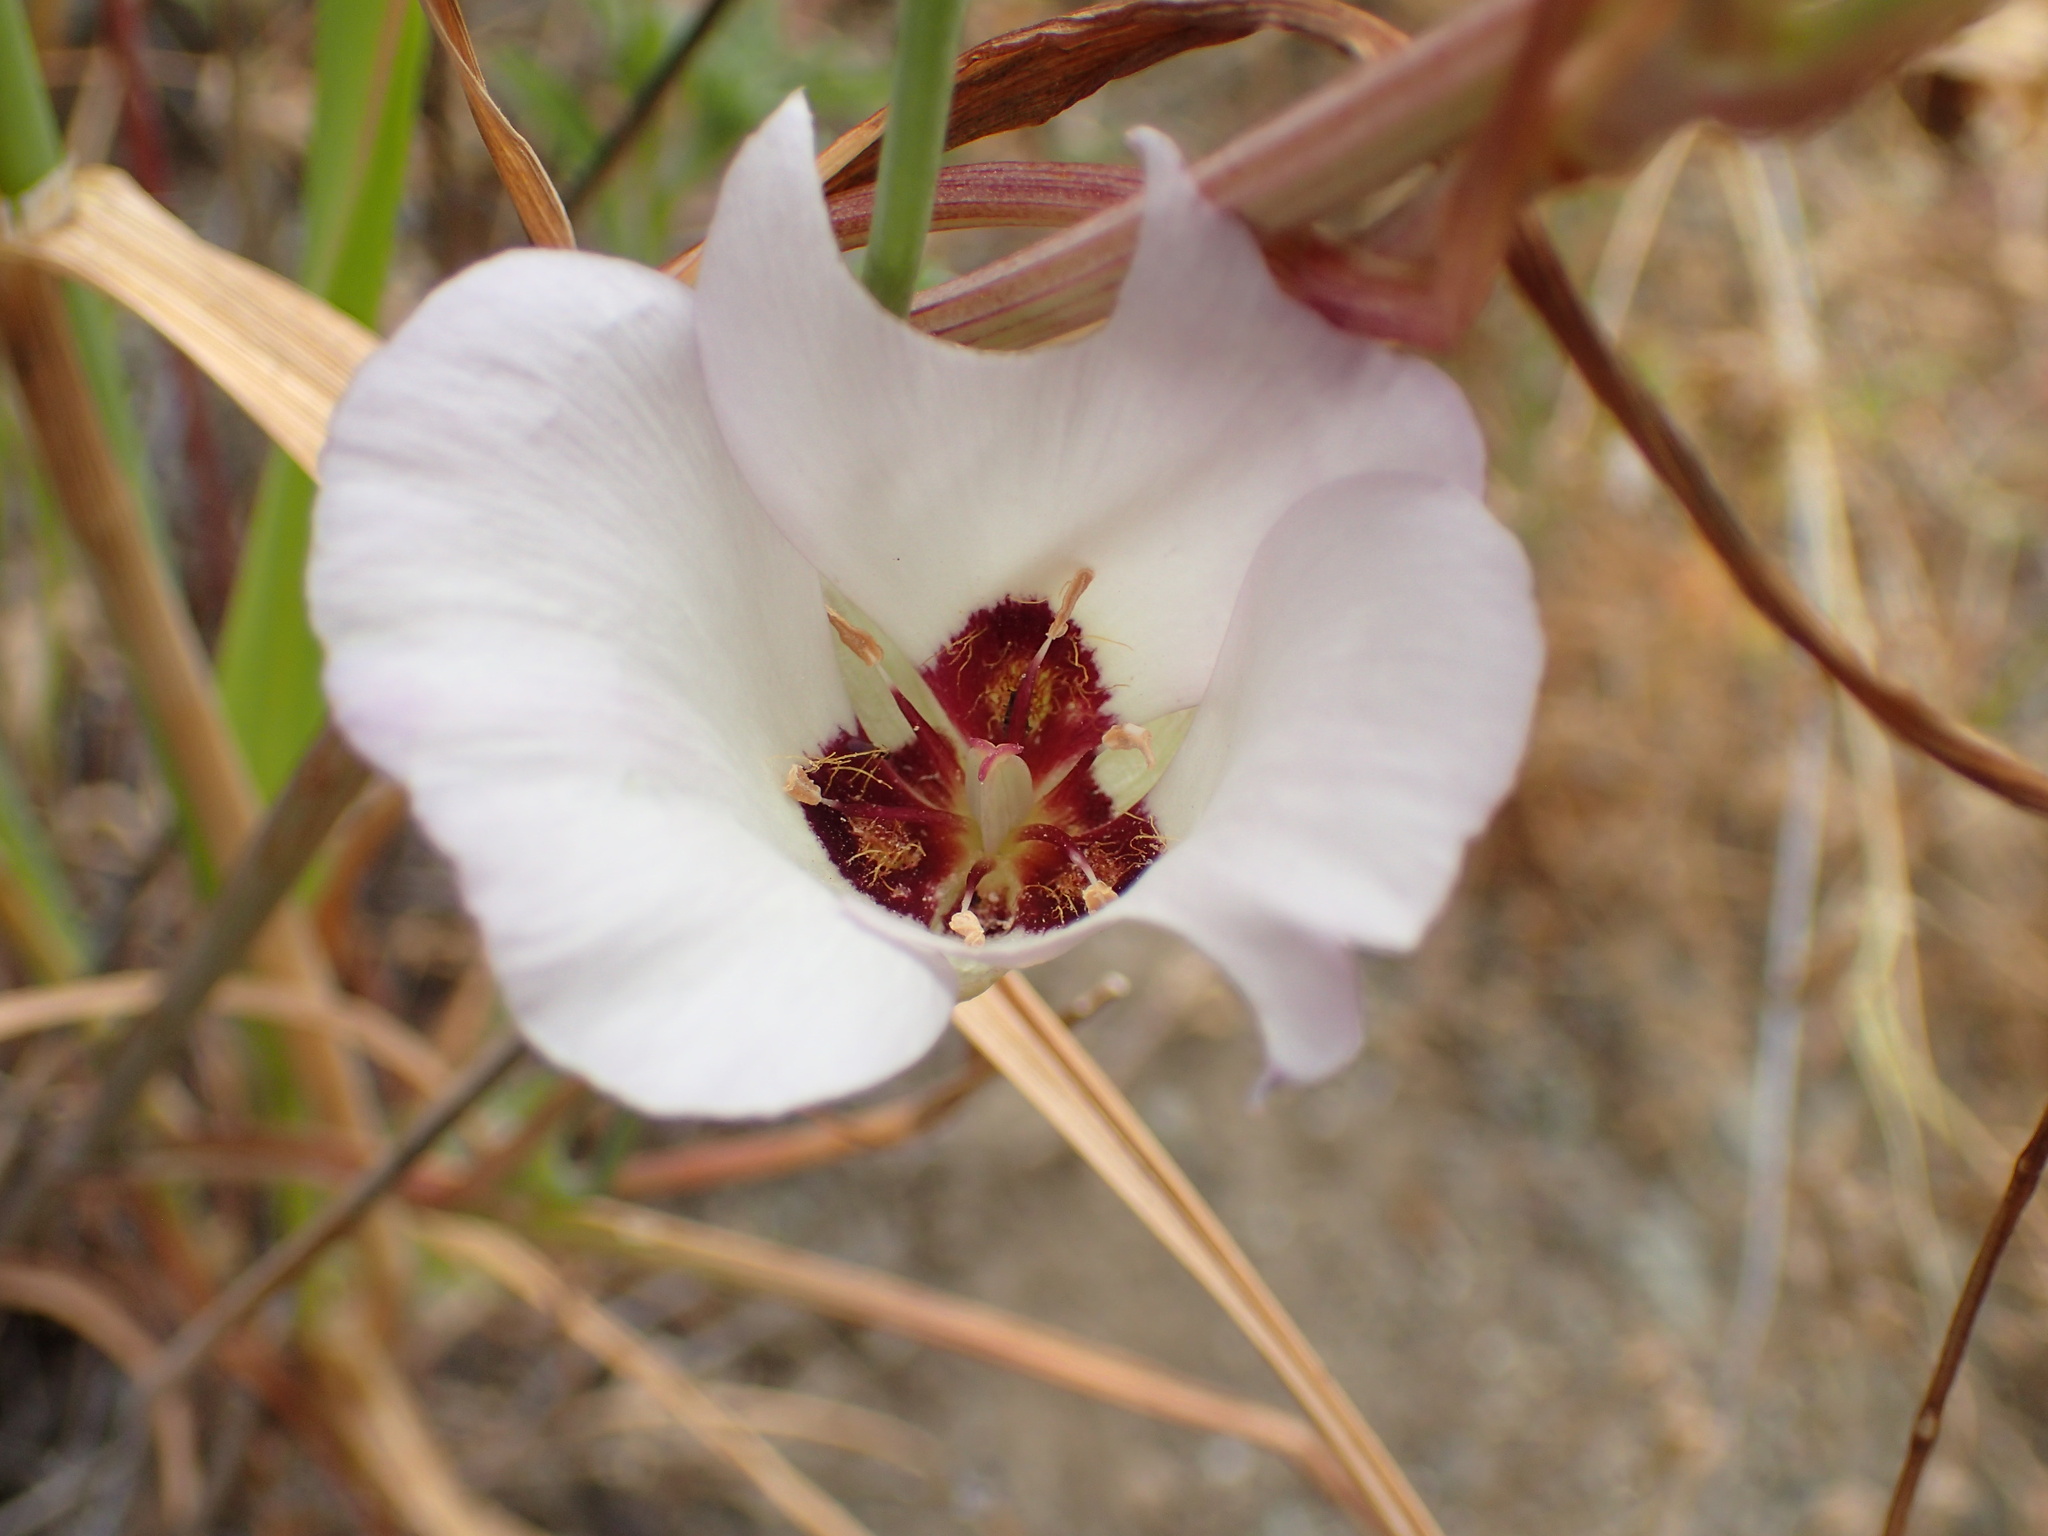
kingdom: Plantae
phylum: Tracheophyta
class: Liliopsida
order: Liliales
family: Liliaceae
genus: Calochortus
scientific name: Calochortus catalinae
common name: Catalina mariposa-lily
